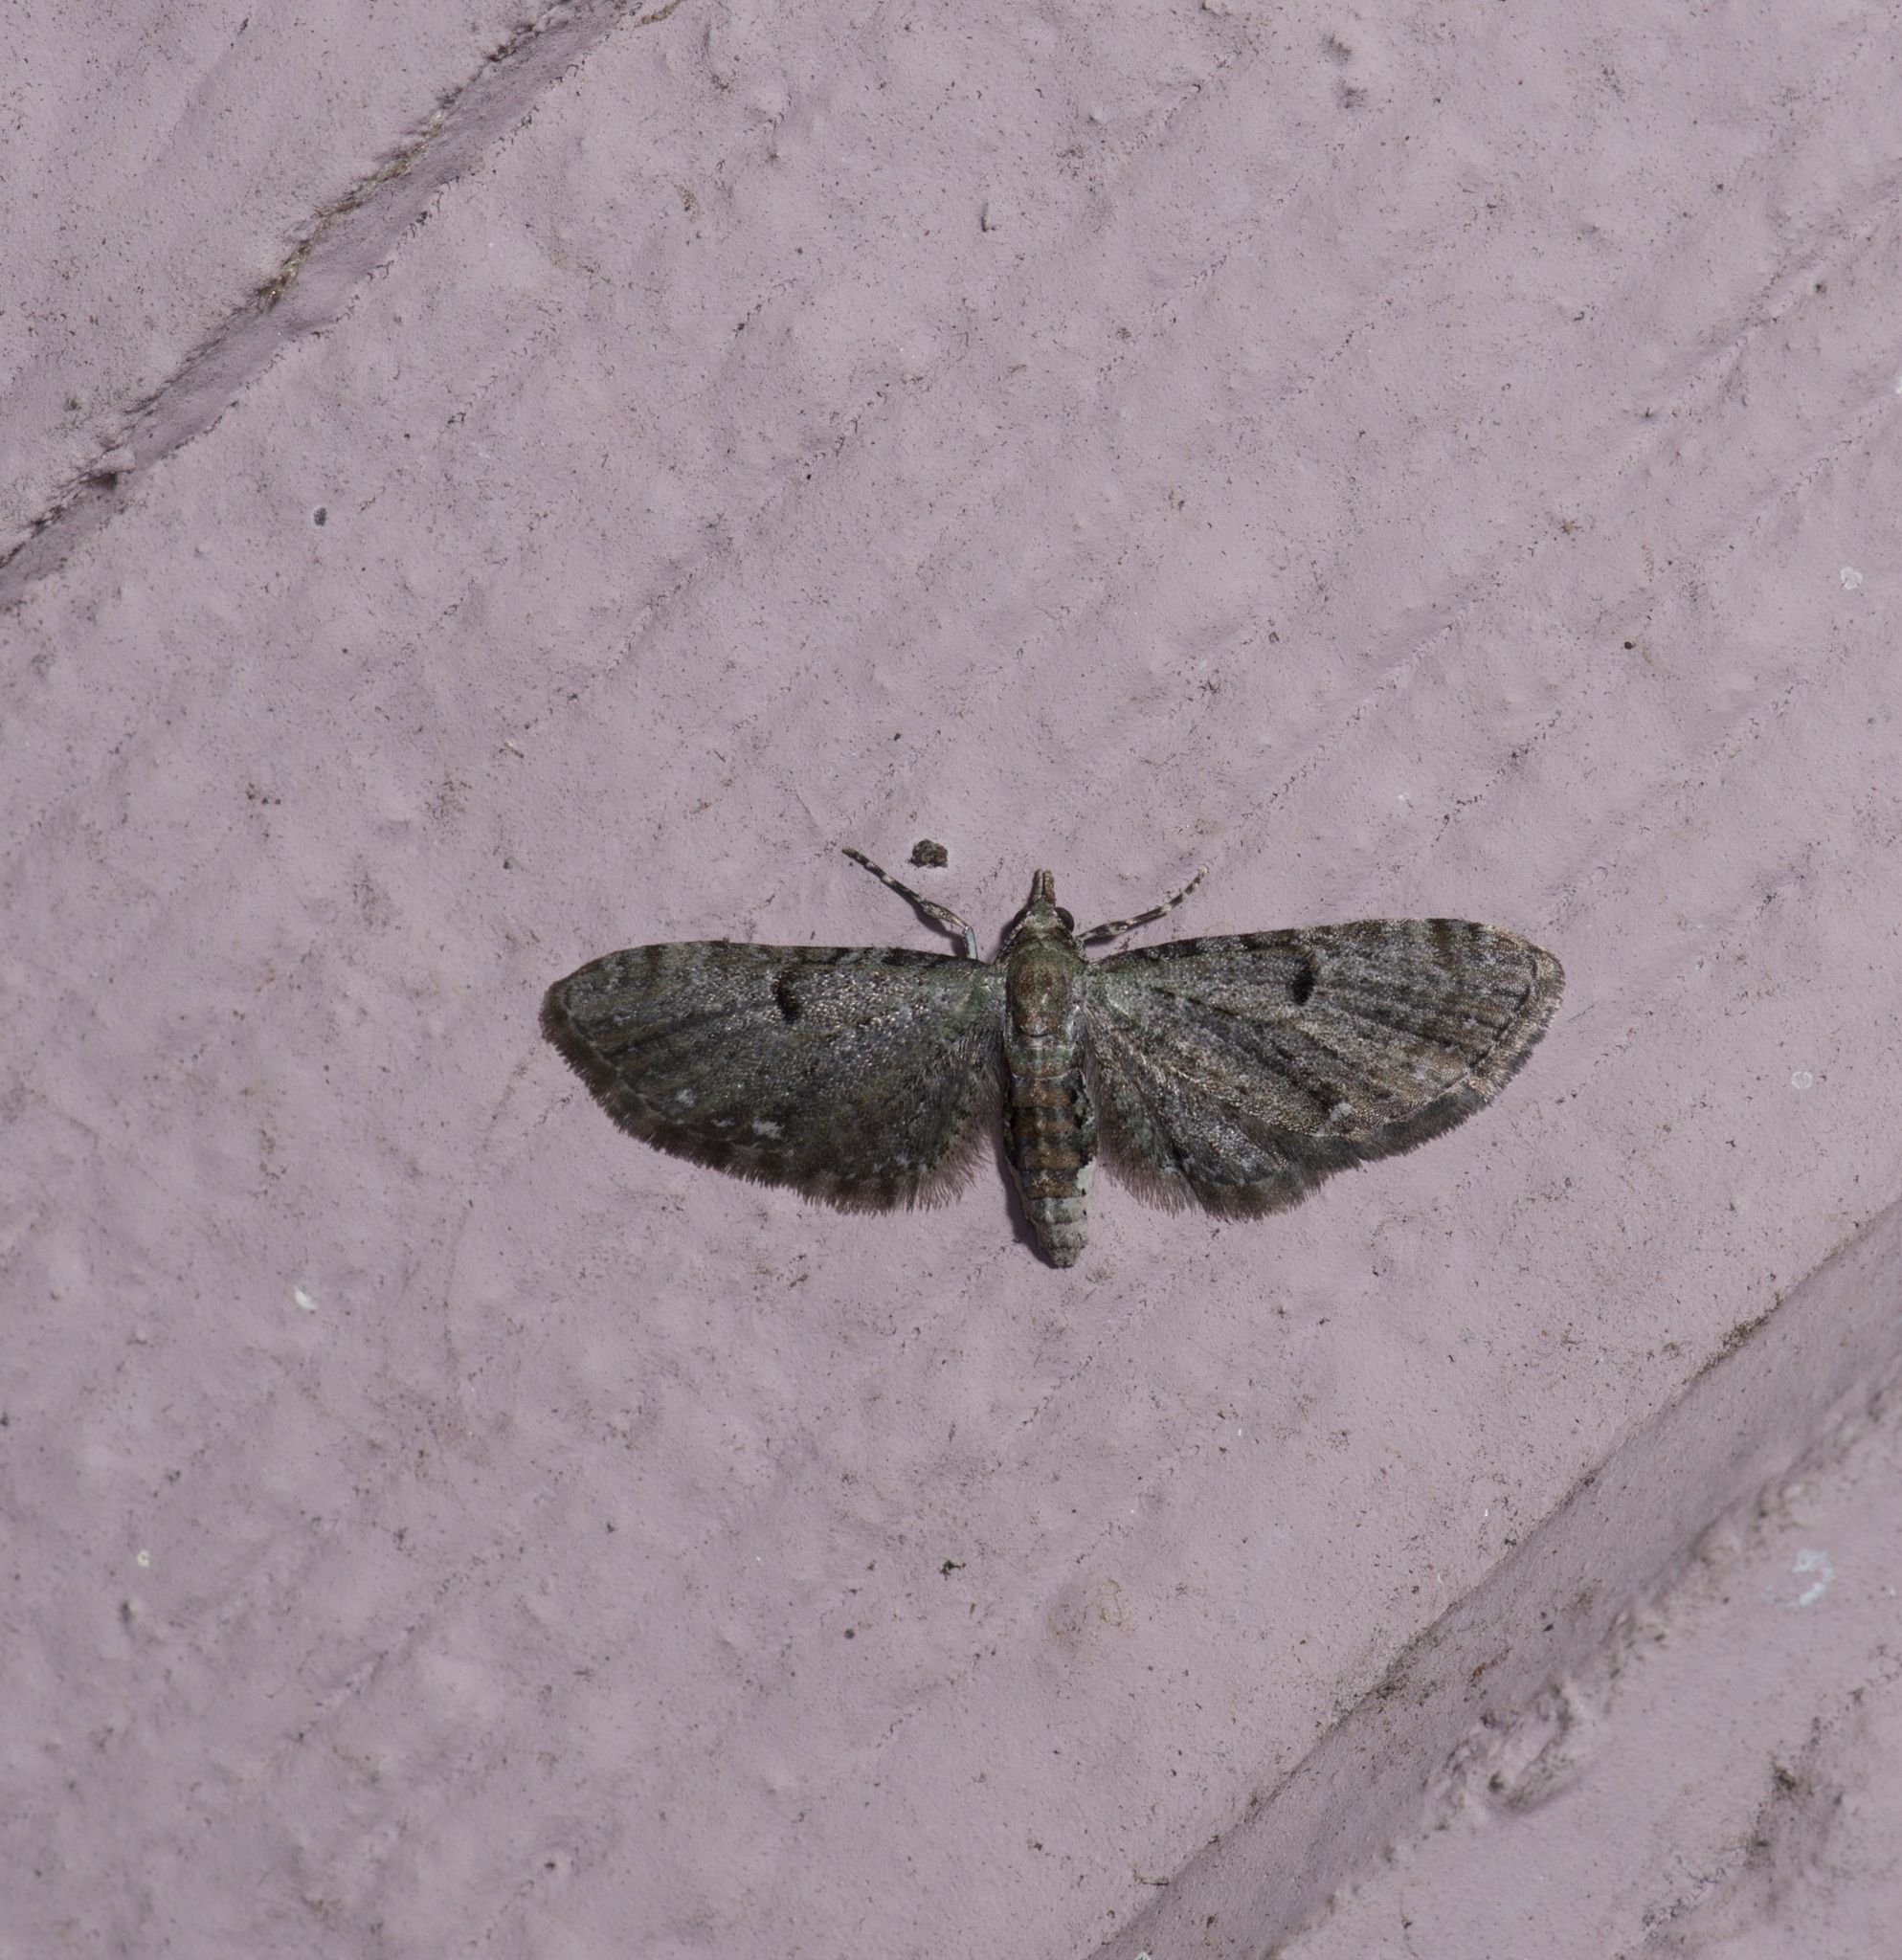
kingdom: Animalia
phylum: Arthropoda
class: Insecta
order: Lepidoptera
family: Geometridae
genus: Eupithecia
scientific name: Eupithecia miserulata
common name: Common eupithecia
